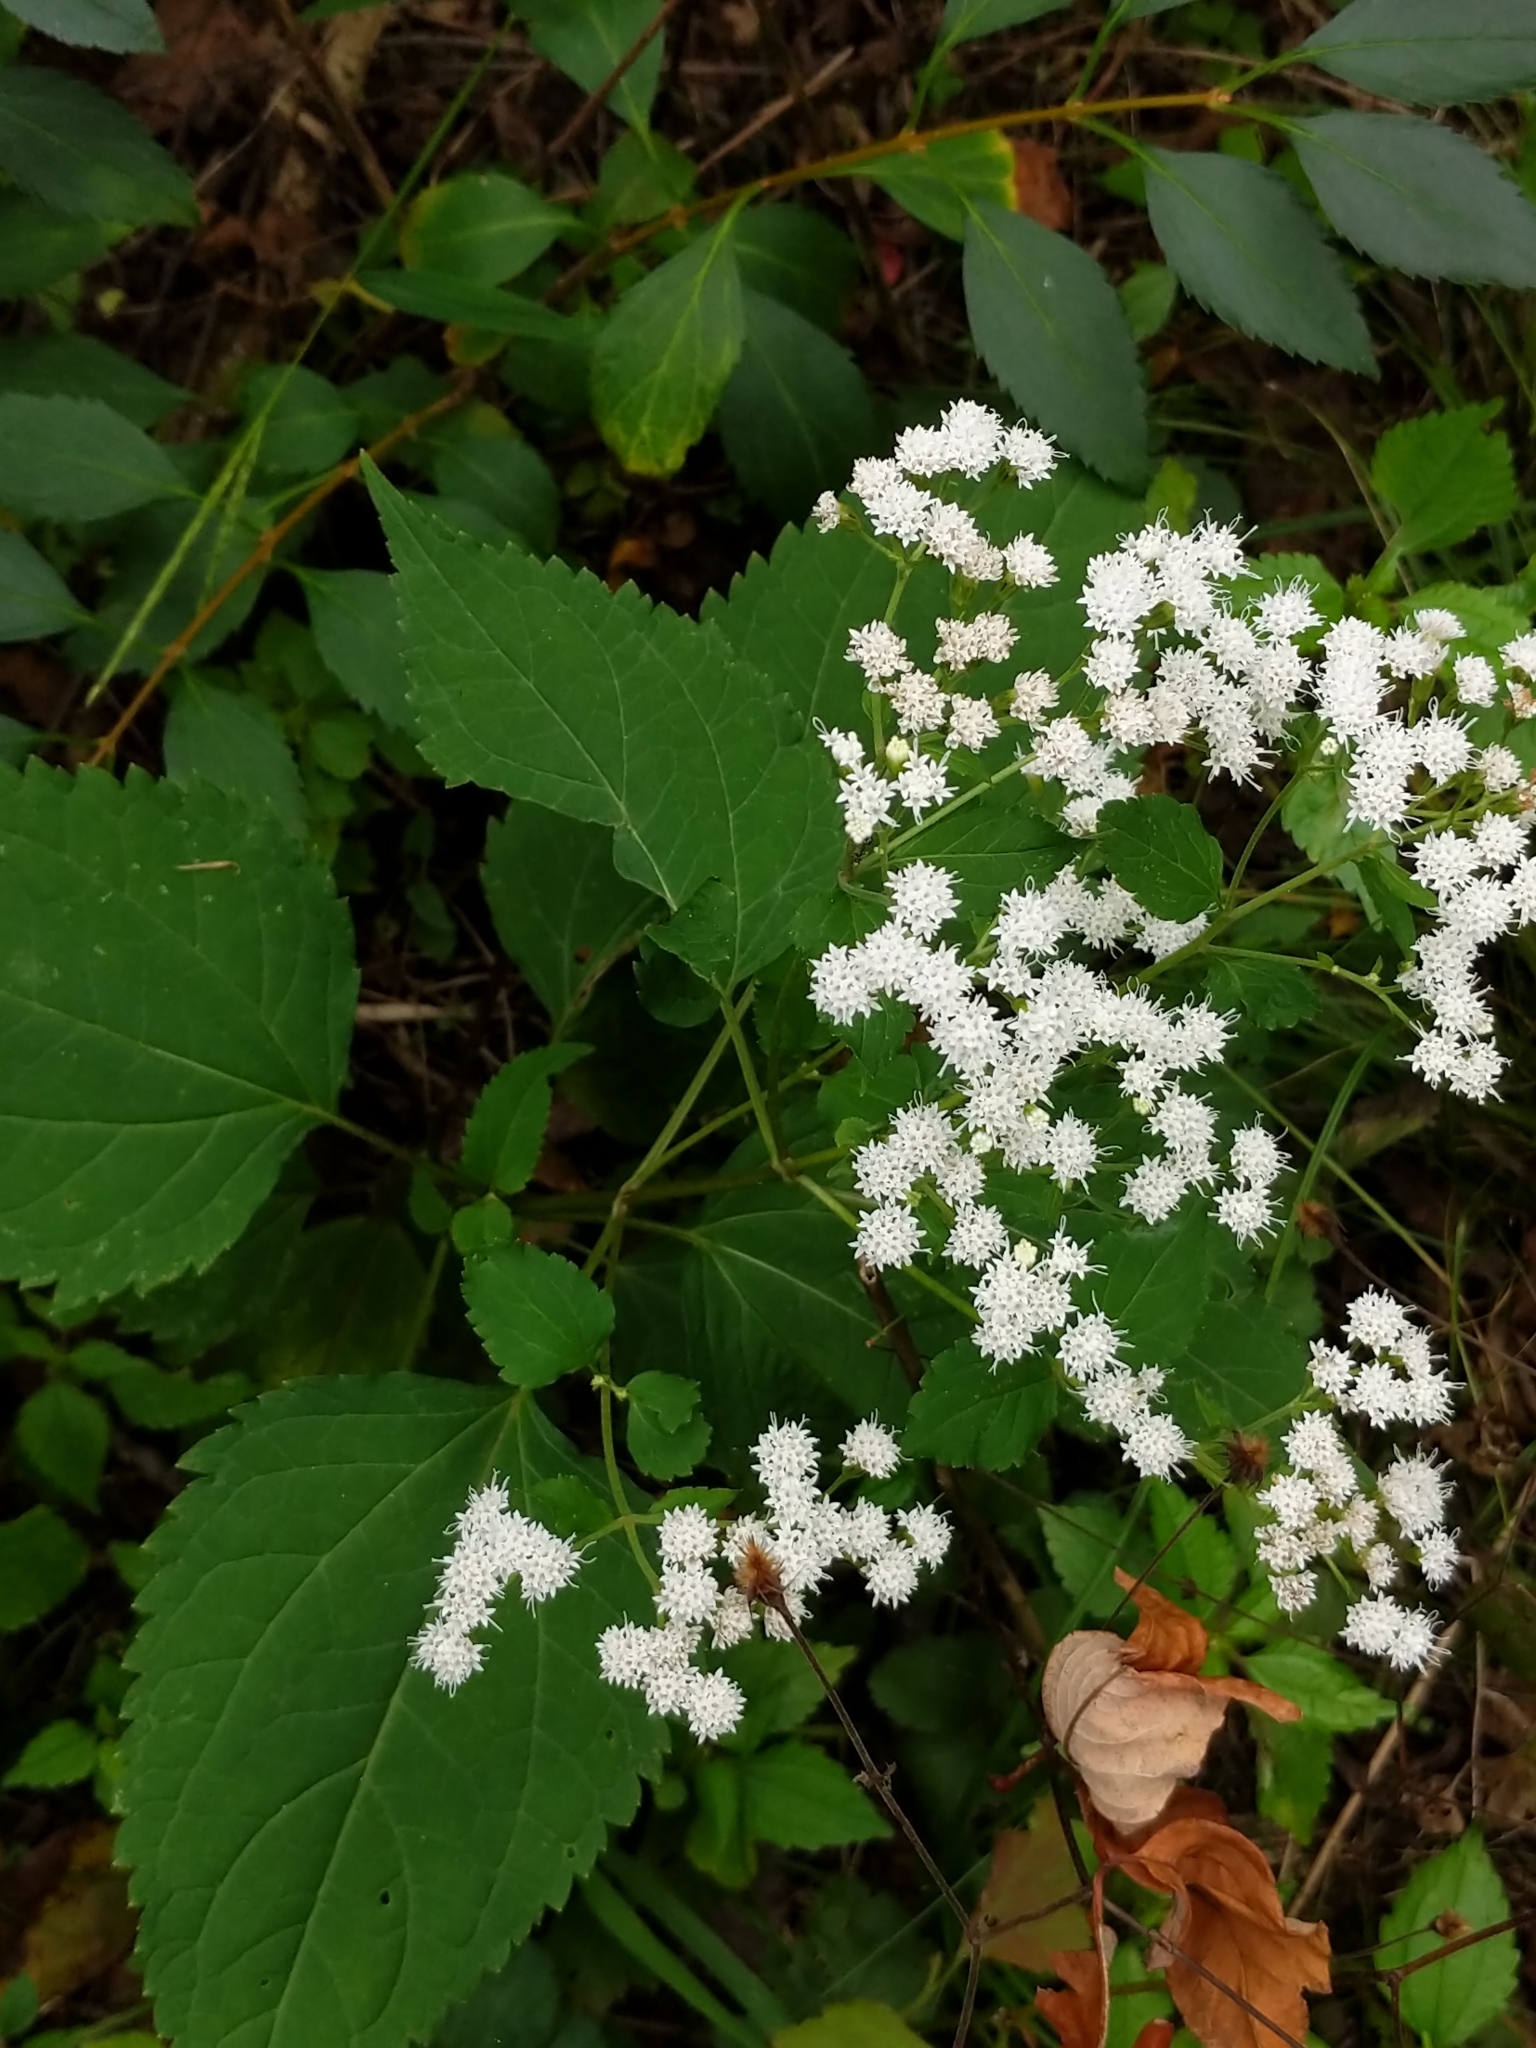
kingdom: Plantae
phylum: Tracheophyta
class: Magnoliopsida
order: Asterales
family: Asteraceae
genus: Ageratina
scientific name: Ageratina altissima
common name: White snakeroot
